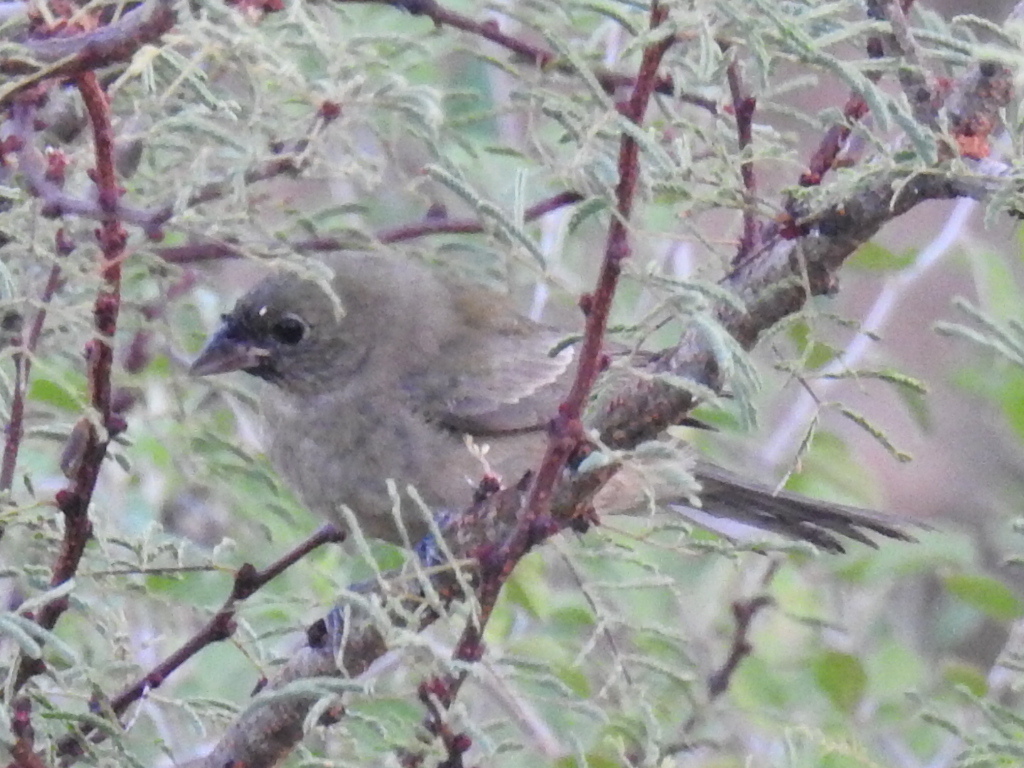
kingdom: Animalia
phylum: Chordata
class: Aves
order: Passeriformes
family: Cardinalidae
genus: Passerina
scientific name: Passerina ciris
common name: Painted bunting
